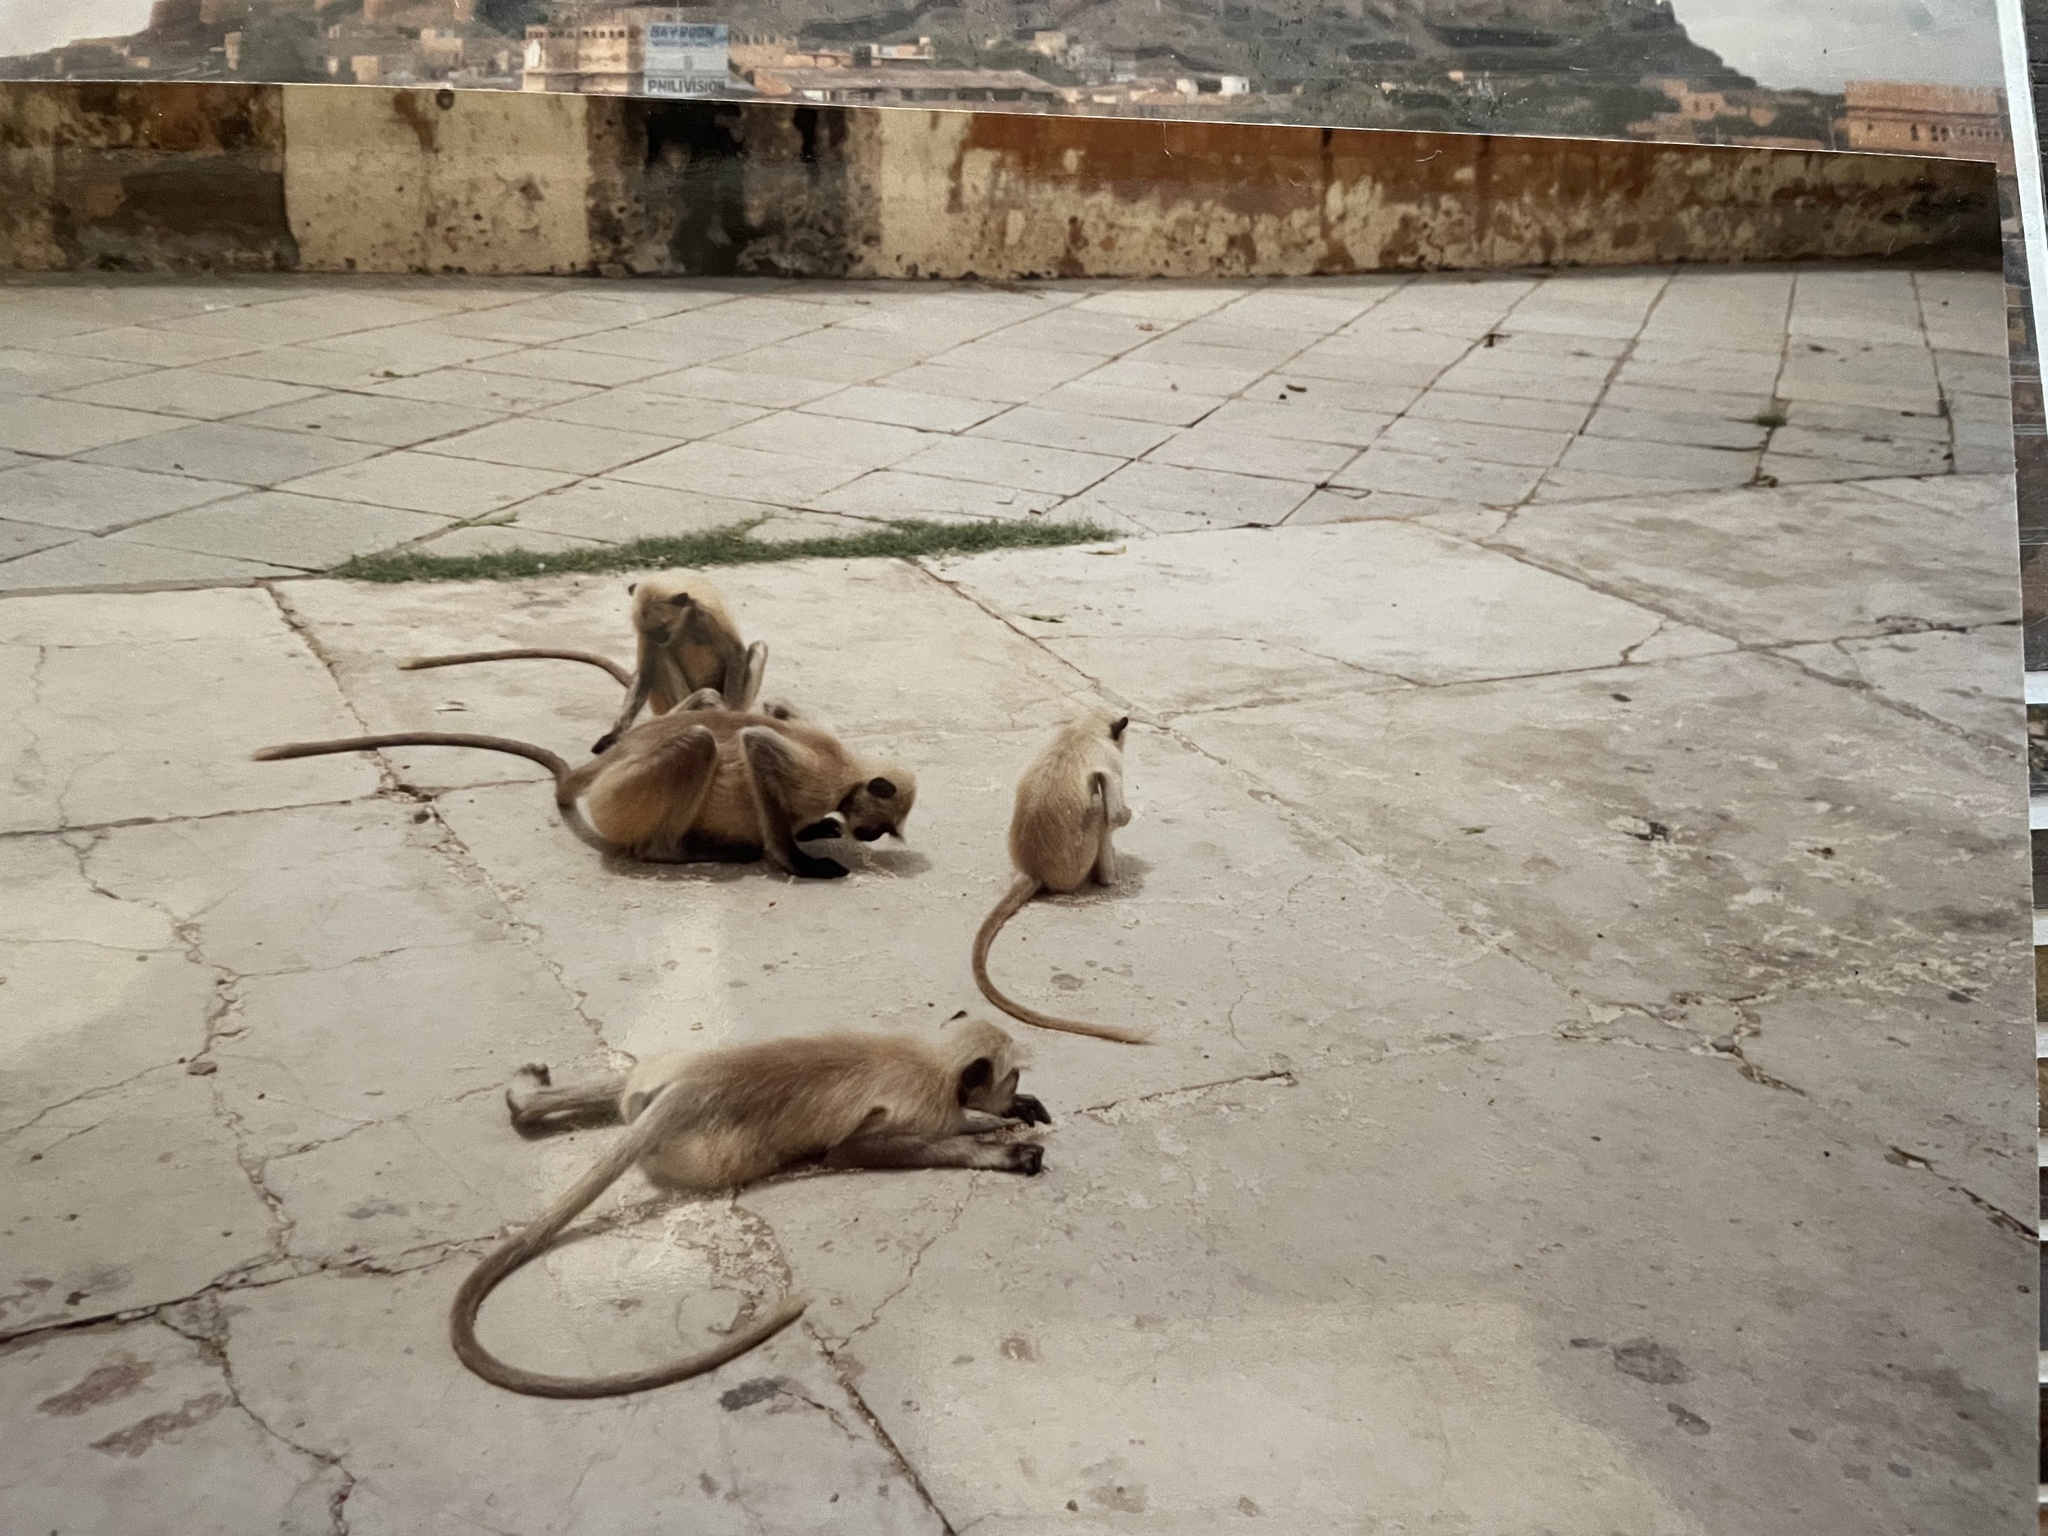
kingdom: Animalia
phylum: Chordata
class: Mammalia
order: Primates
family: Cercopithecidae
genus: Semnopithecus
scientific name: Semnopithecus entellus
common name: Northern plains gray langur
